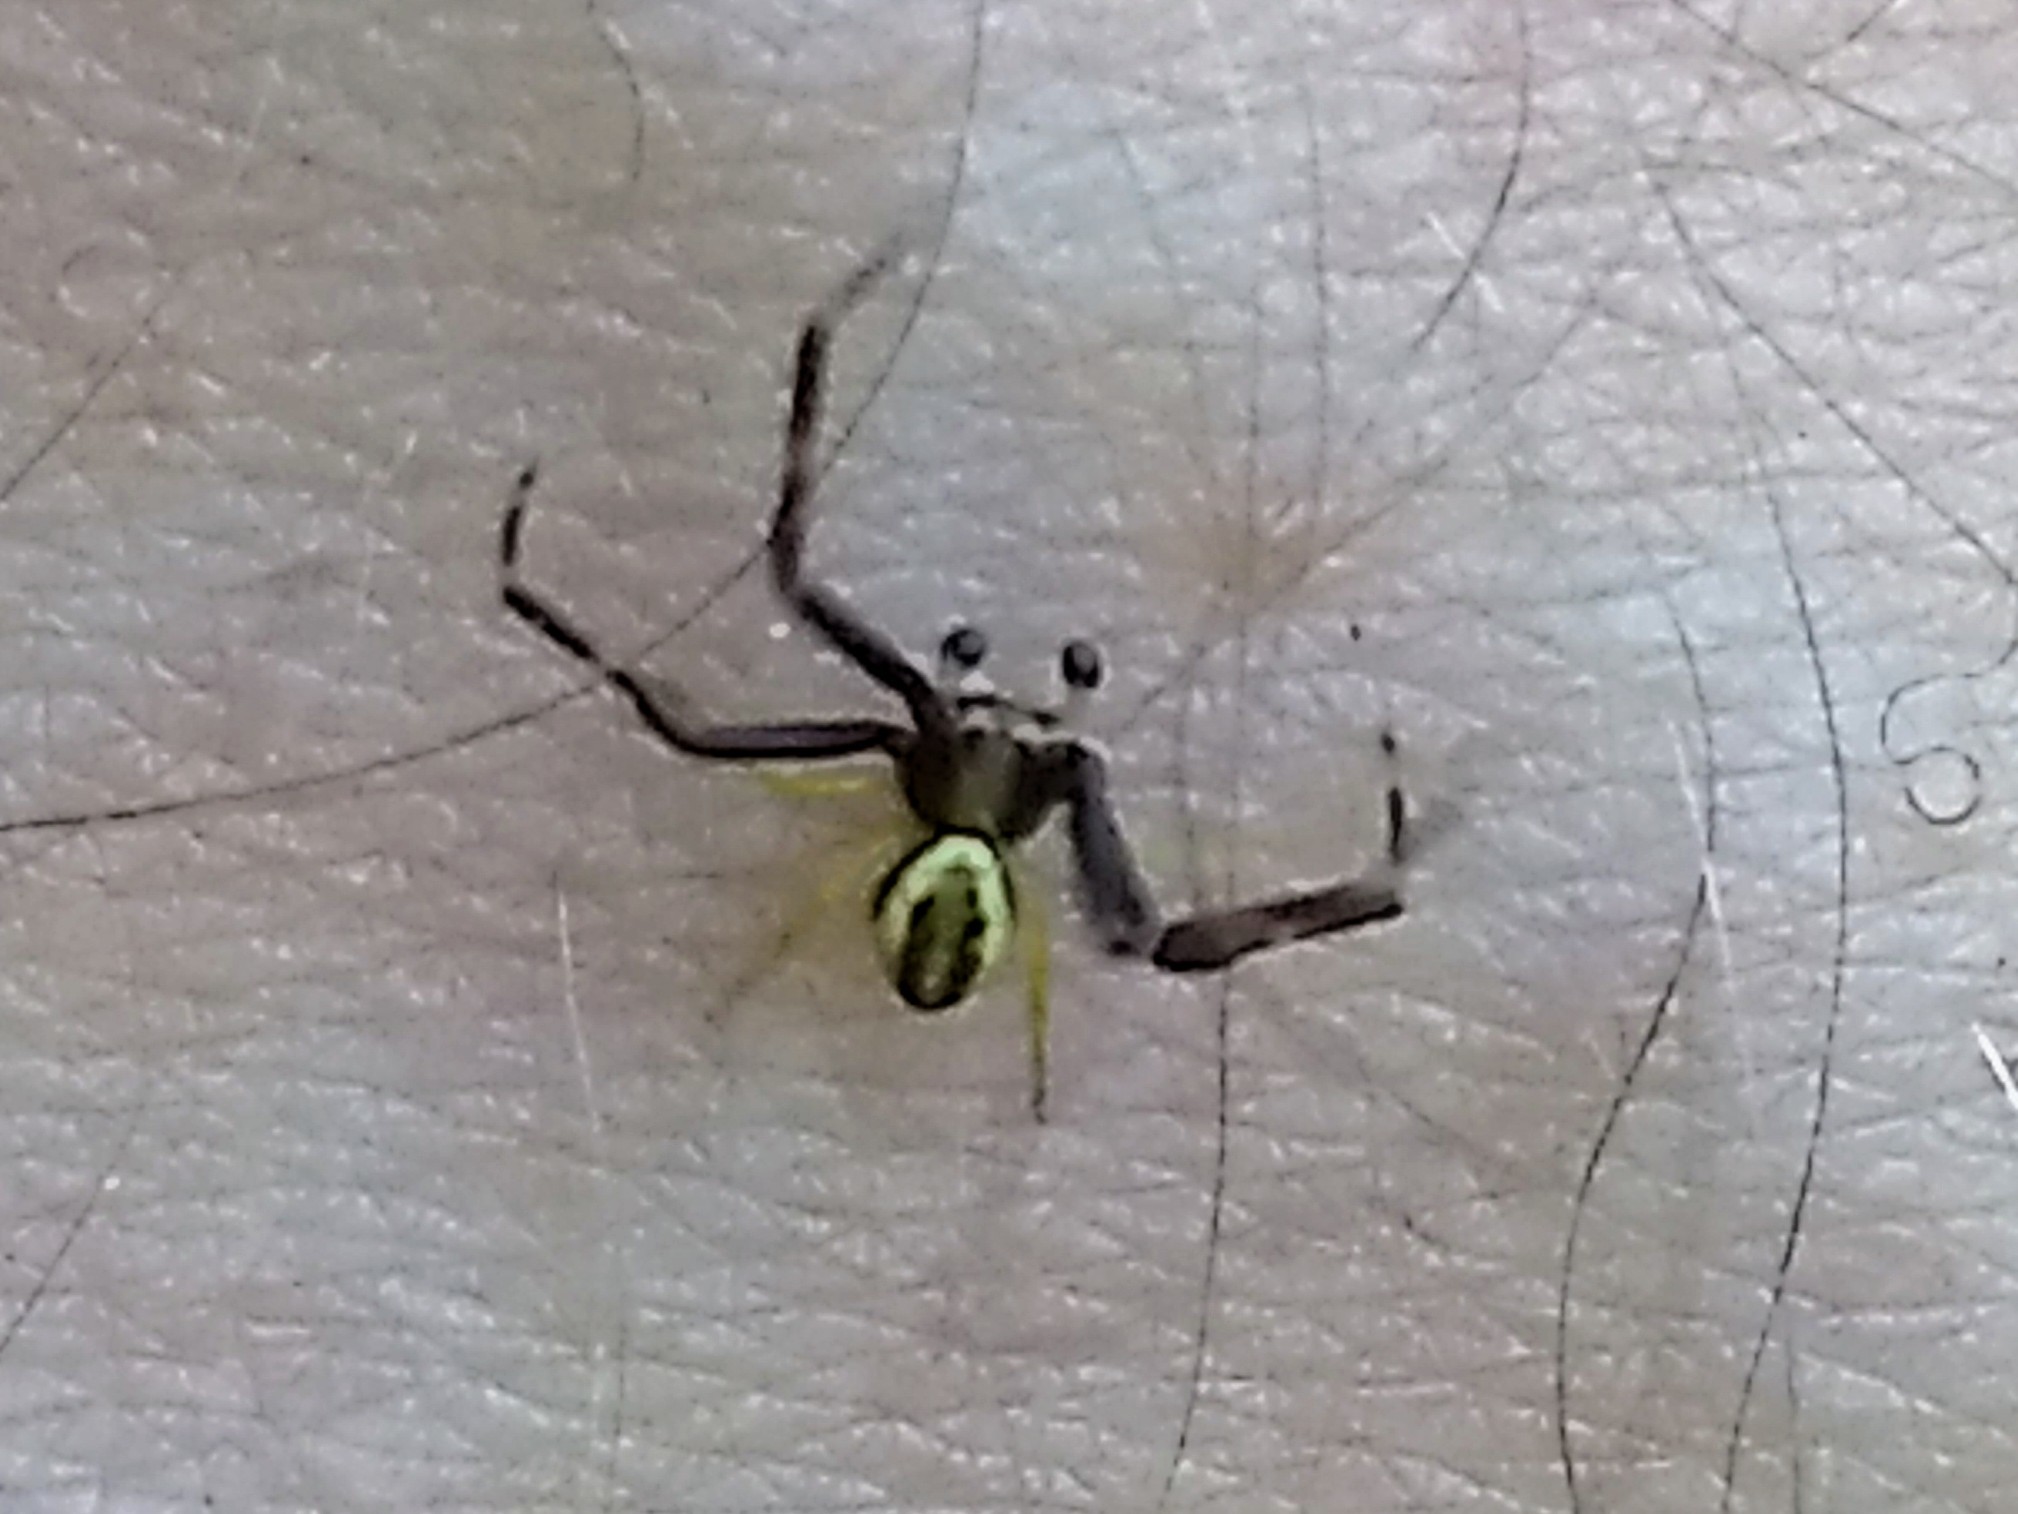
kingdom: Animalia
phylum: Arthropoda
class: Arachnida
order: Araneae
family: Thomisidae
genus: Misumena
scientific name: Misumena vatia
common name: Goldenrod crab spider
